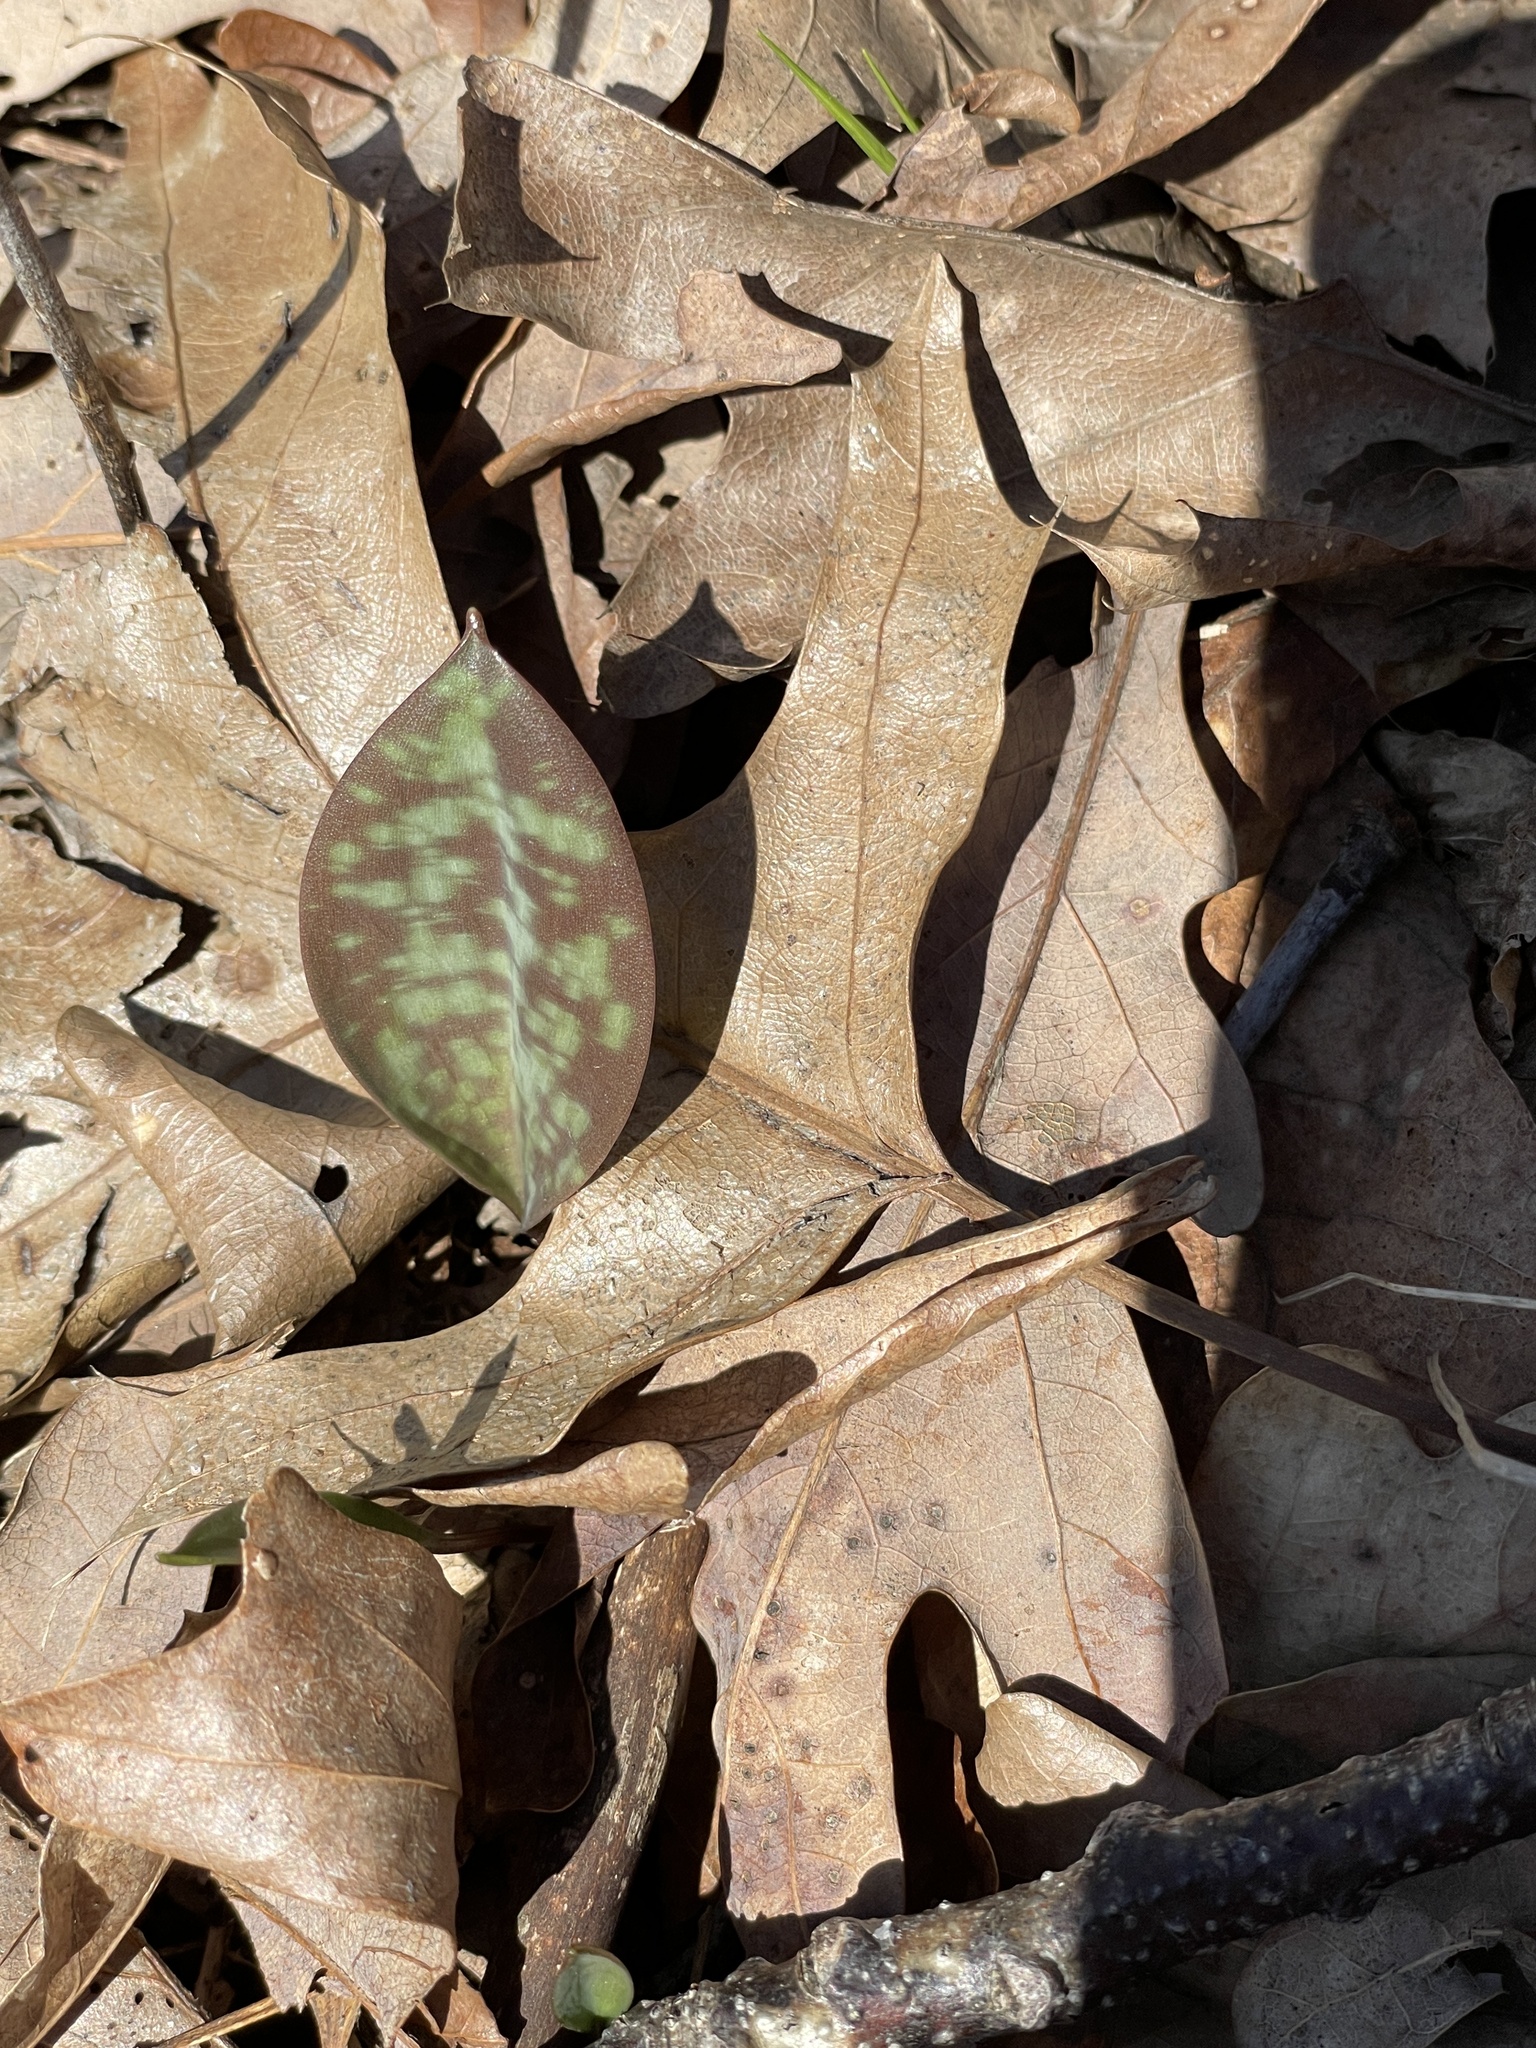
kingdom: Plantae
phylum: Tracheophyta
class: Liliopsida
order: Liliales
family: Liliaceae
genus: Erythronium
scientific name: Erythronium americanum
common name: Yellow adder's-tongue
